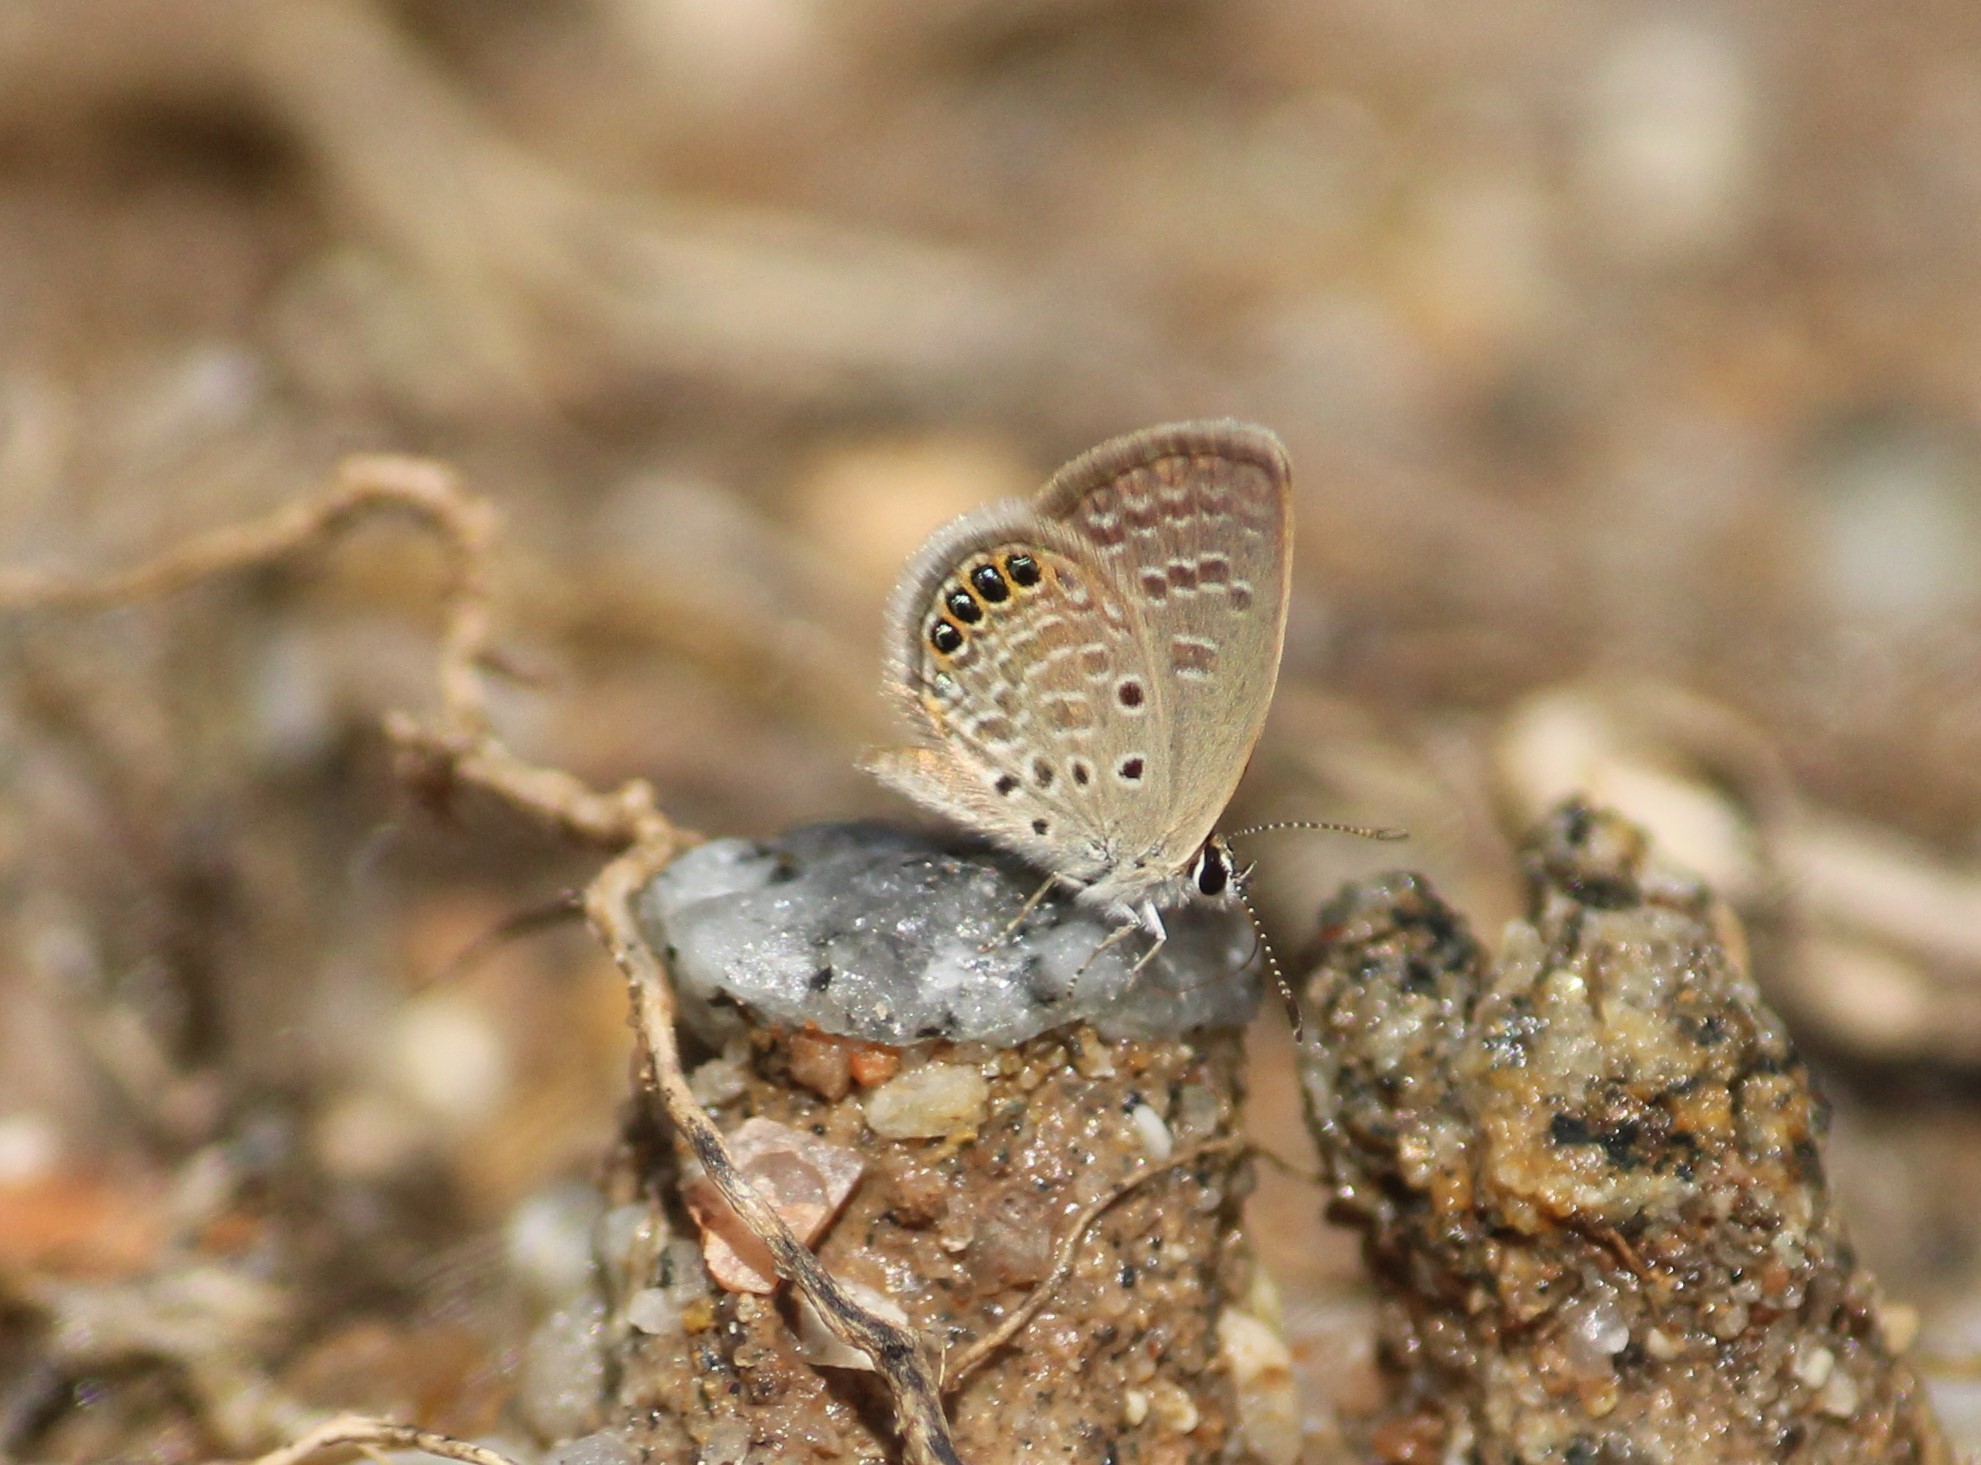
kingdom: Animalia
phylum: Arthropoda
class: Insecta
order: Lepidoptera
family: Lycaenidae
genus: Freyeria
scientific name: Freyeria putli
